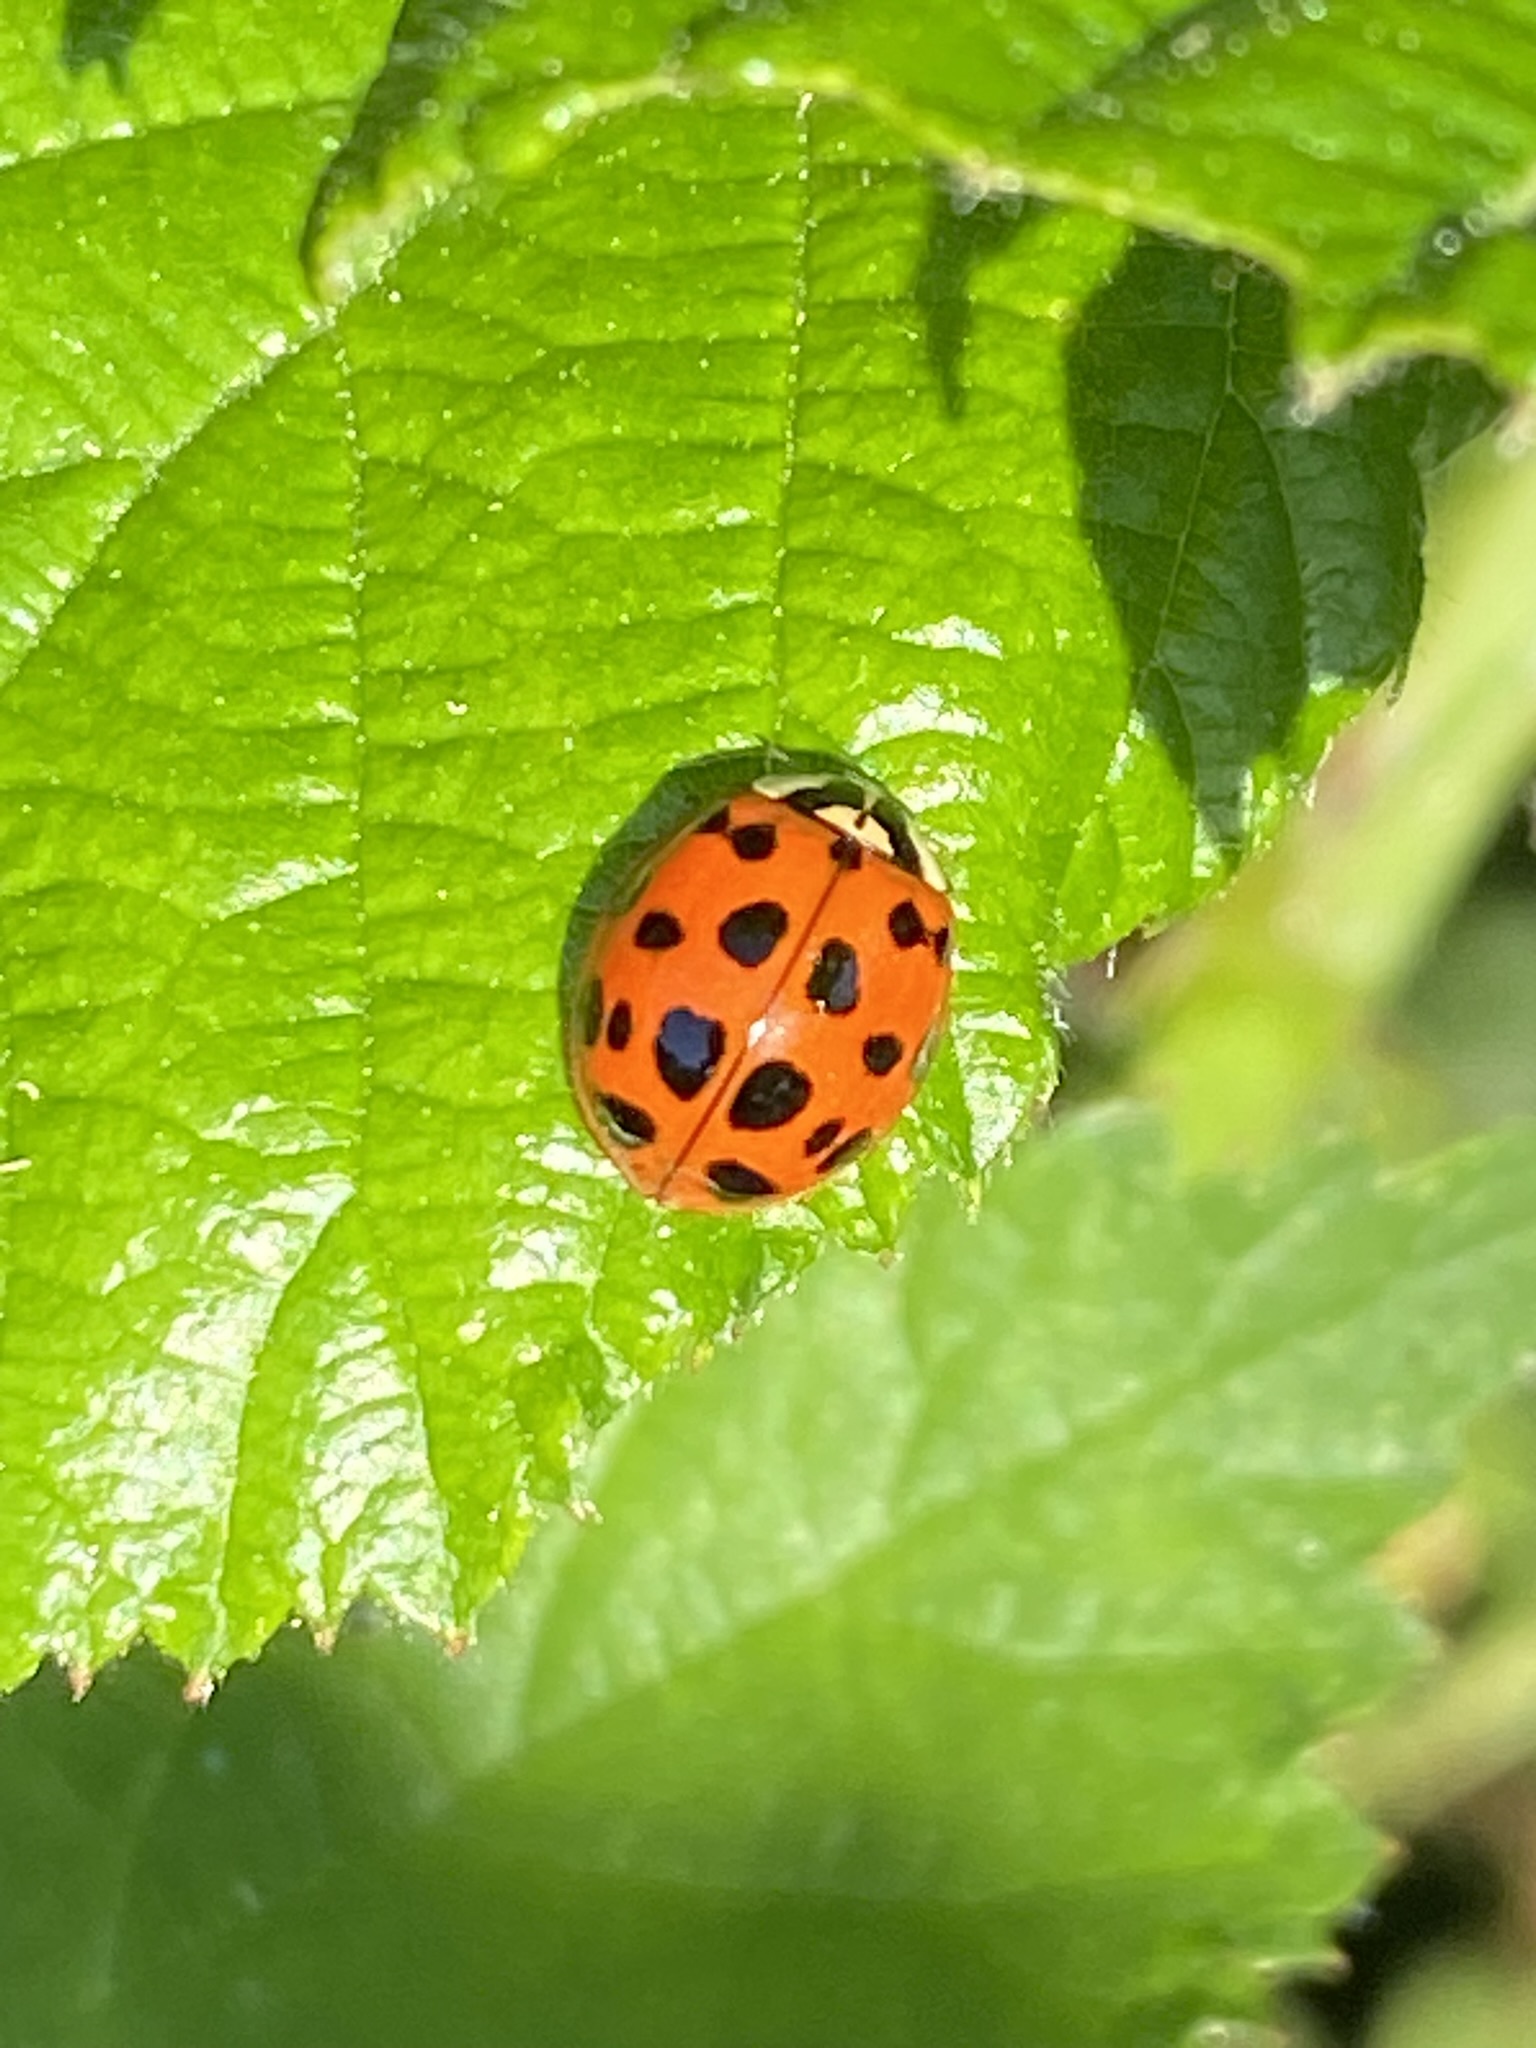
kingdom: Animalia
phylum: Arthropoda
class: Insecta
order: Coleoptera
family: Coccinellidae
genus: Harmonia
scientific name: Harmonia axyridis
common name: Harlequin ladybird
